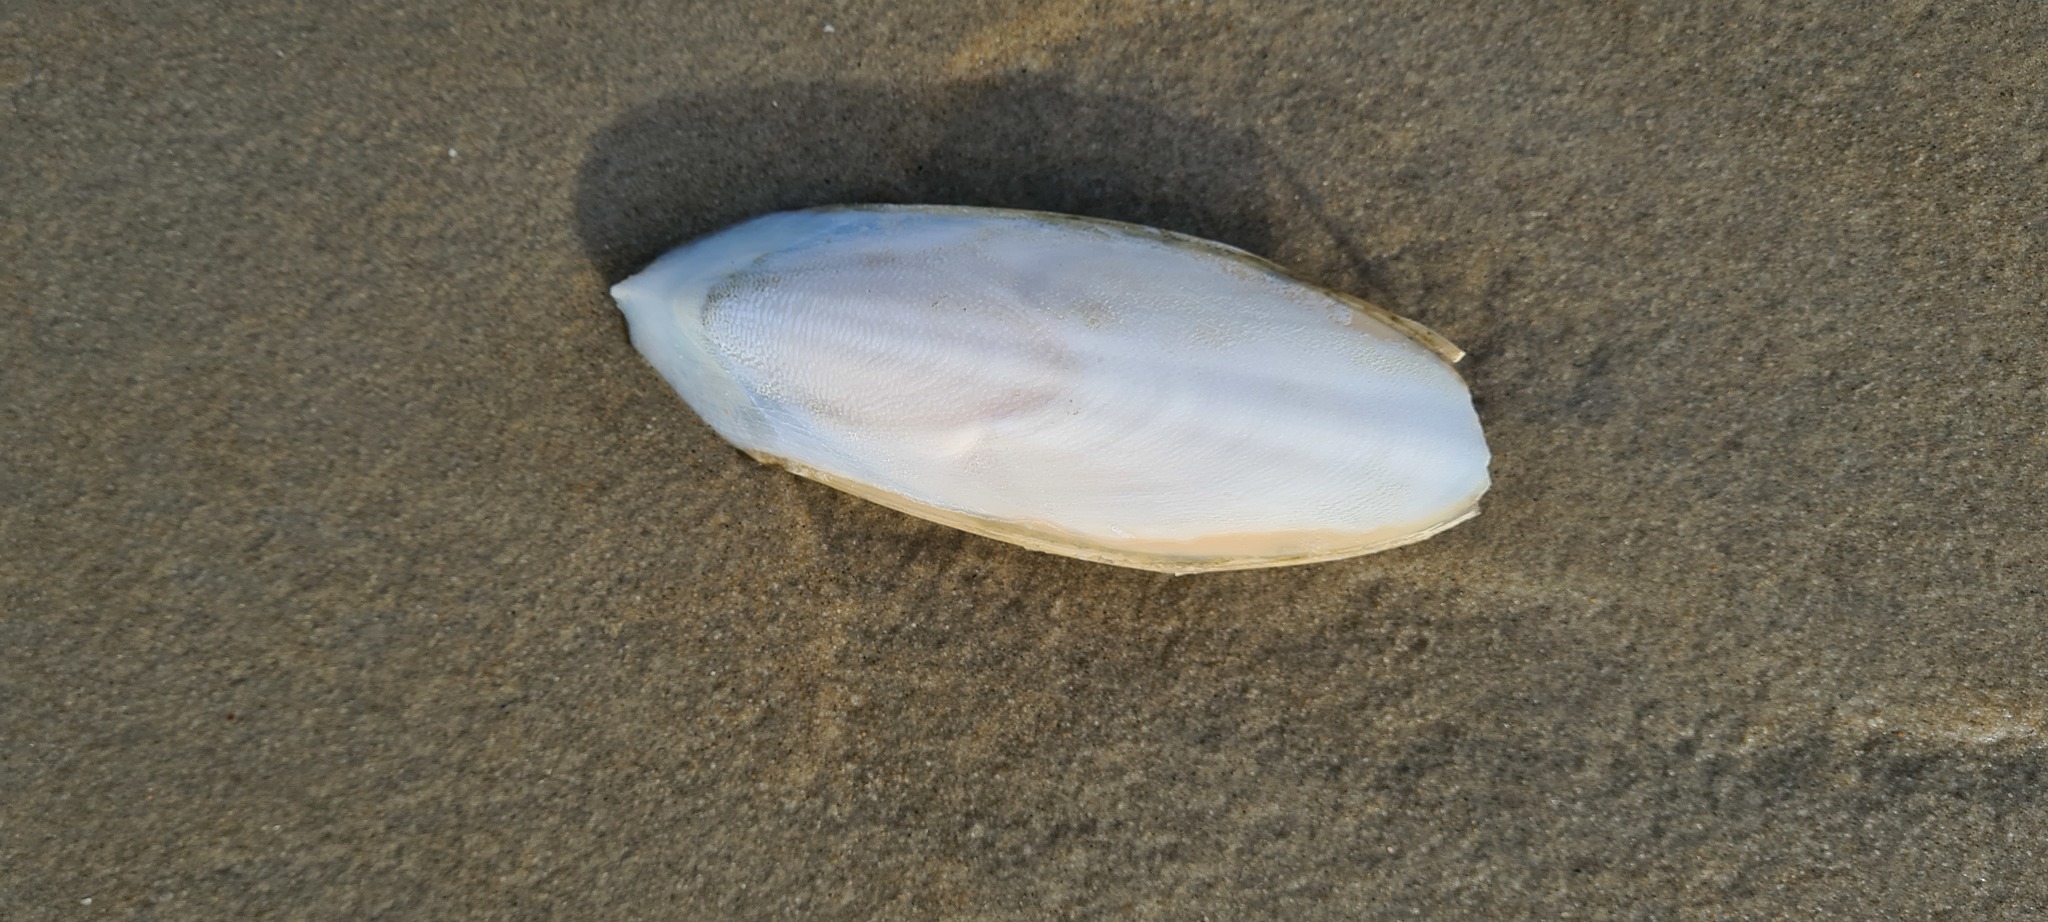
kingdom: Animalia
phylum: Mollusca
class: Cephalopoda
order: Sepiida
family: Sepiidae
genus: Sepia
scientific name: Sepia officinalis
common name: Common cuttlefish
